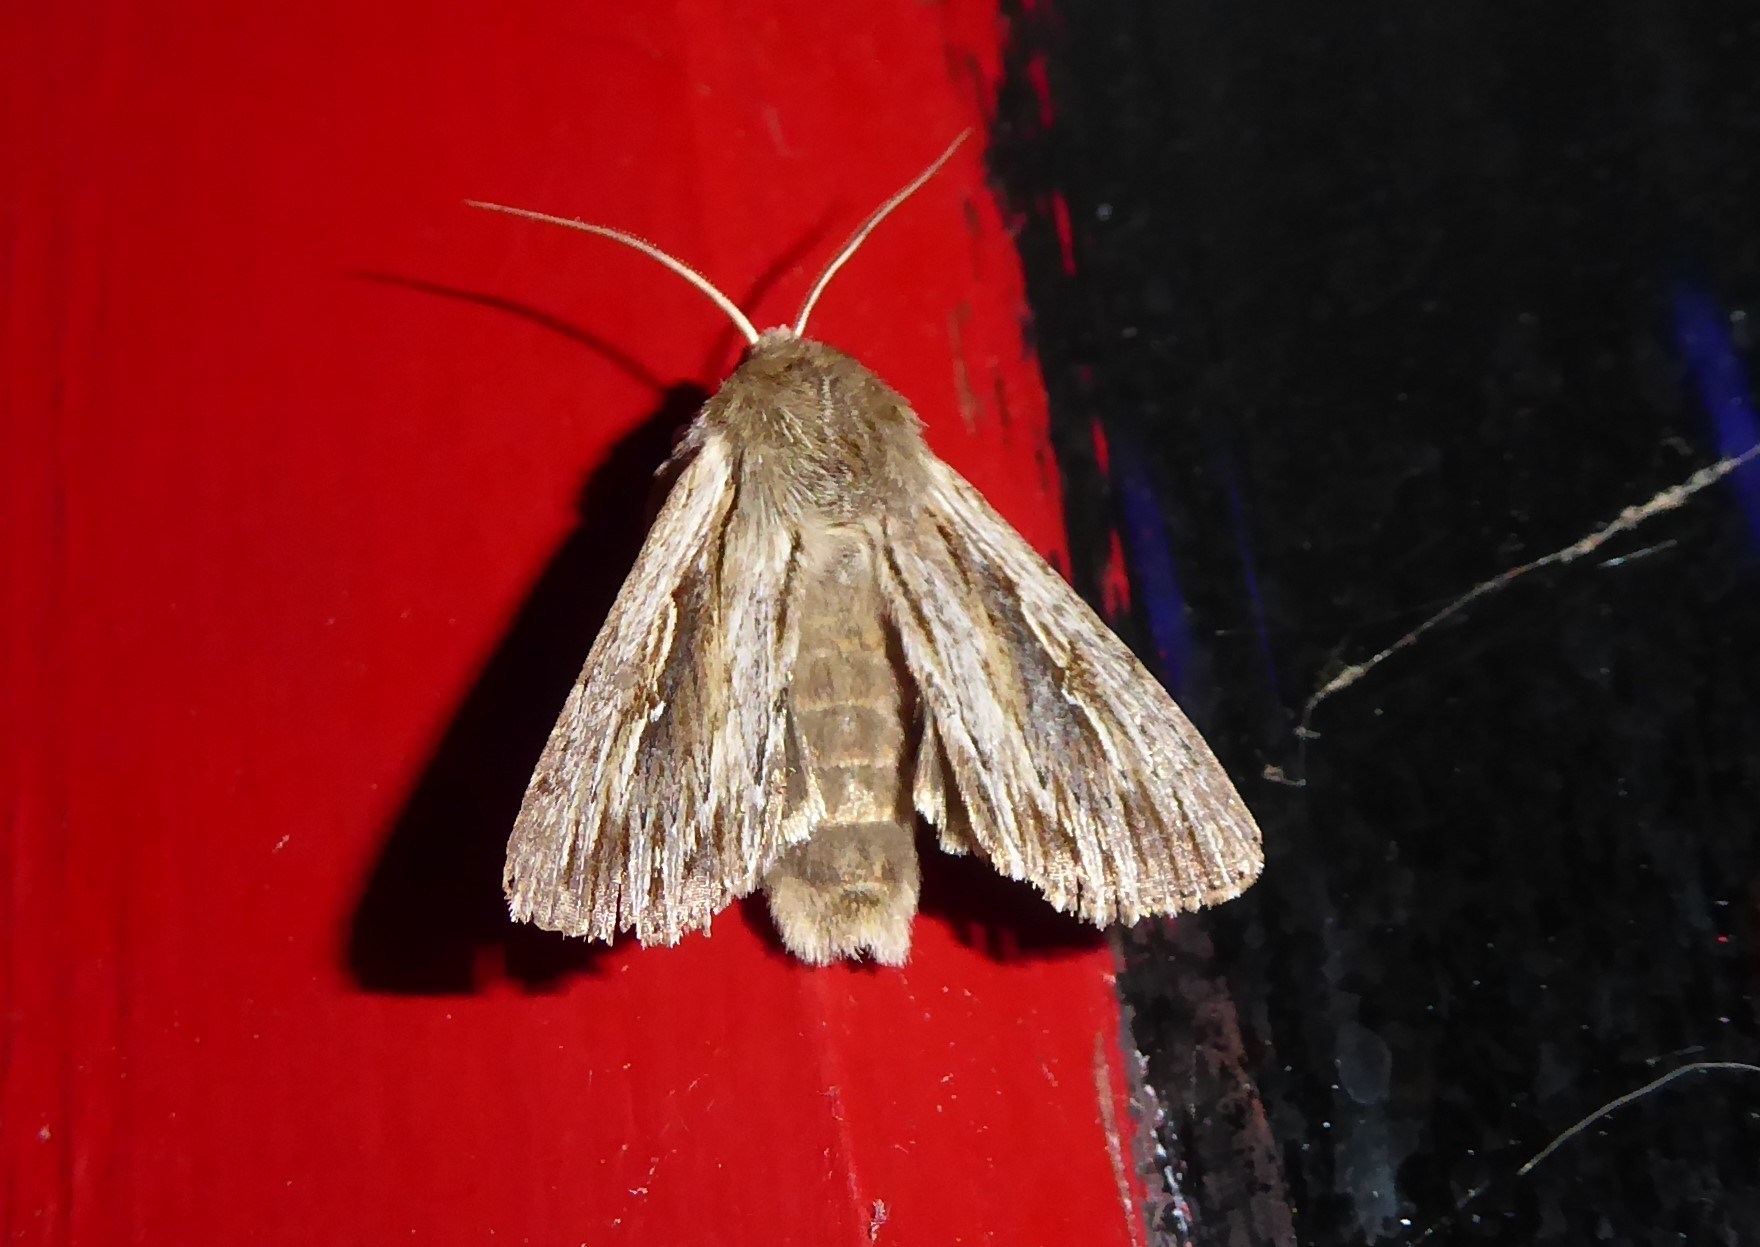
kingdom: Animalia
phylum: Arthropoda
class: Insecta
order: Lepidoptera
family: Noctuidae
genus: Persectania
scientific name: Persectania aversa
